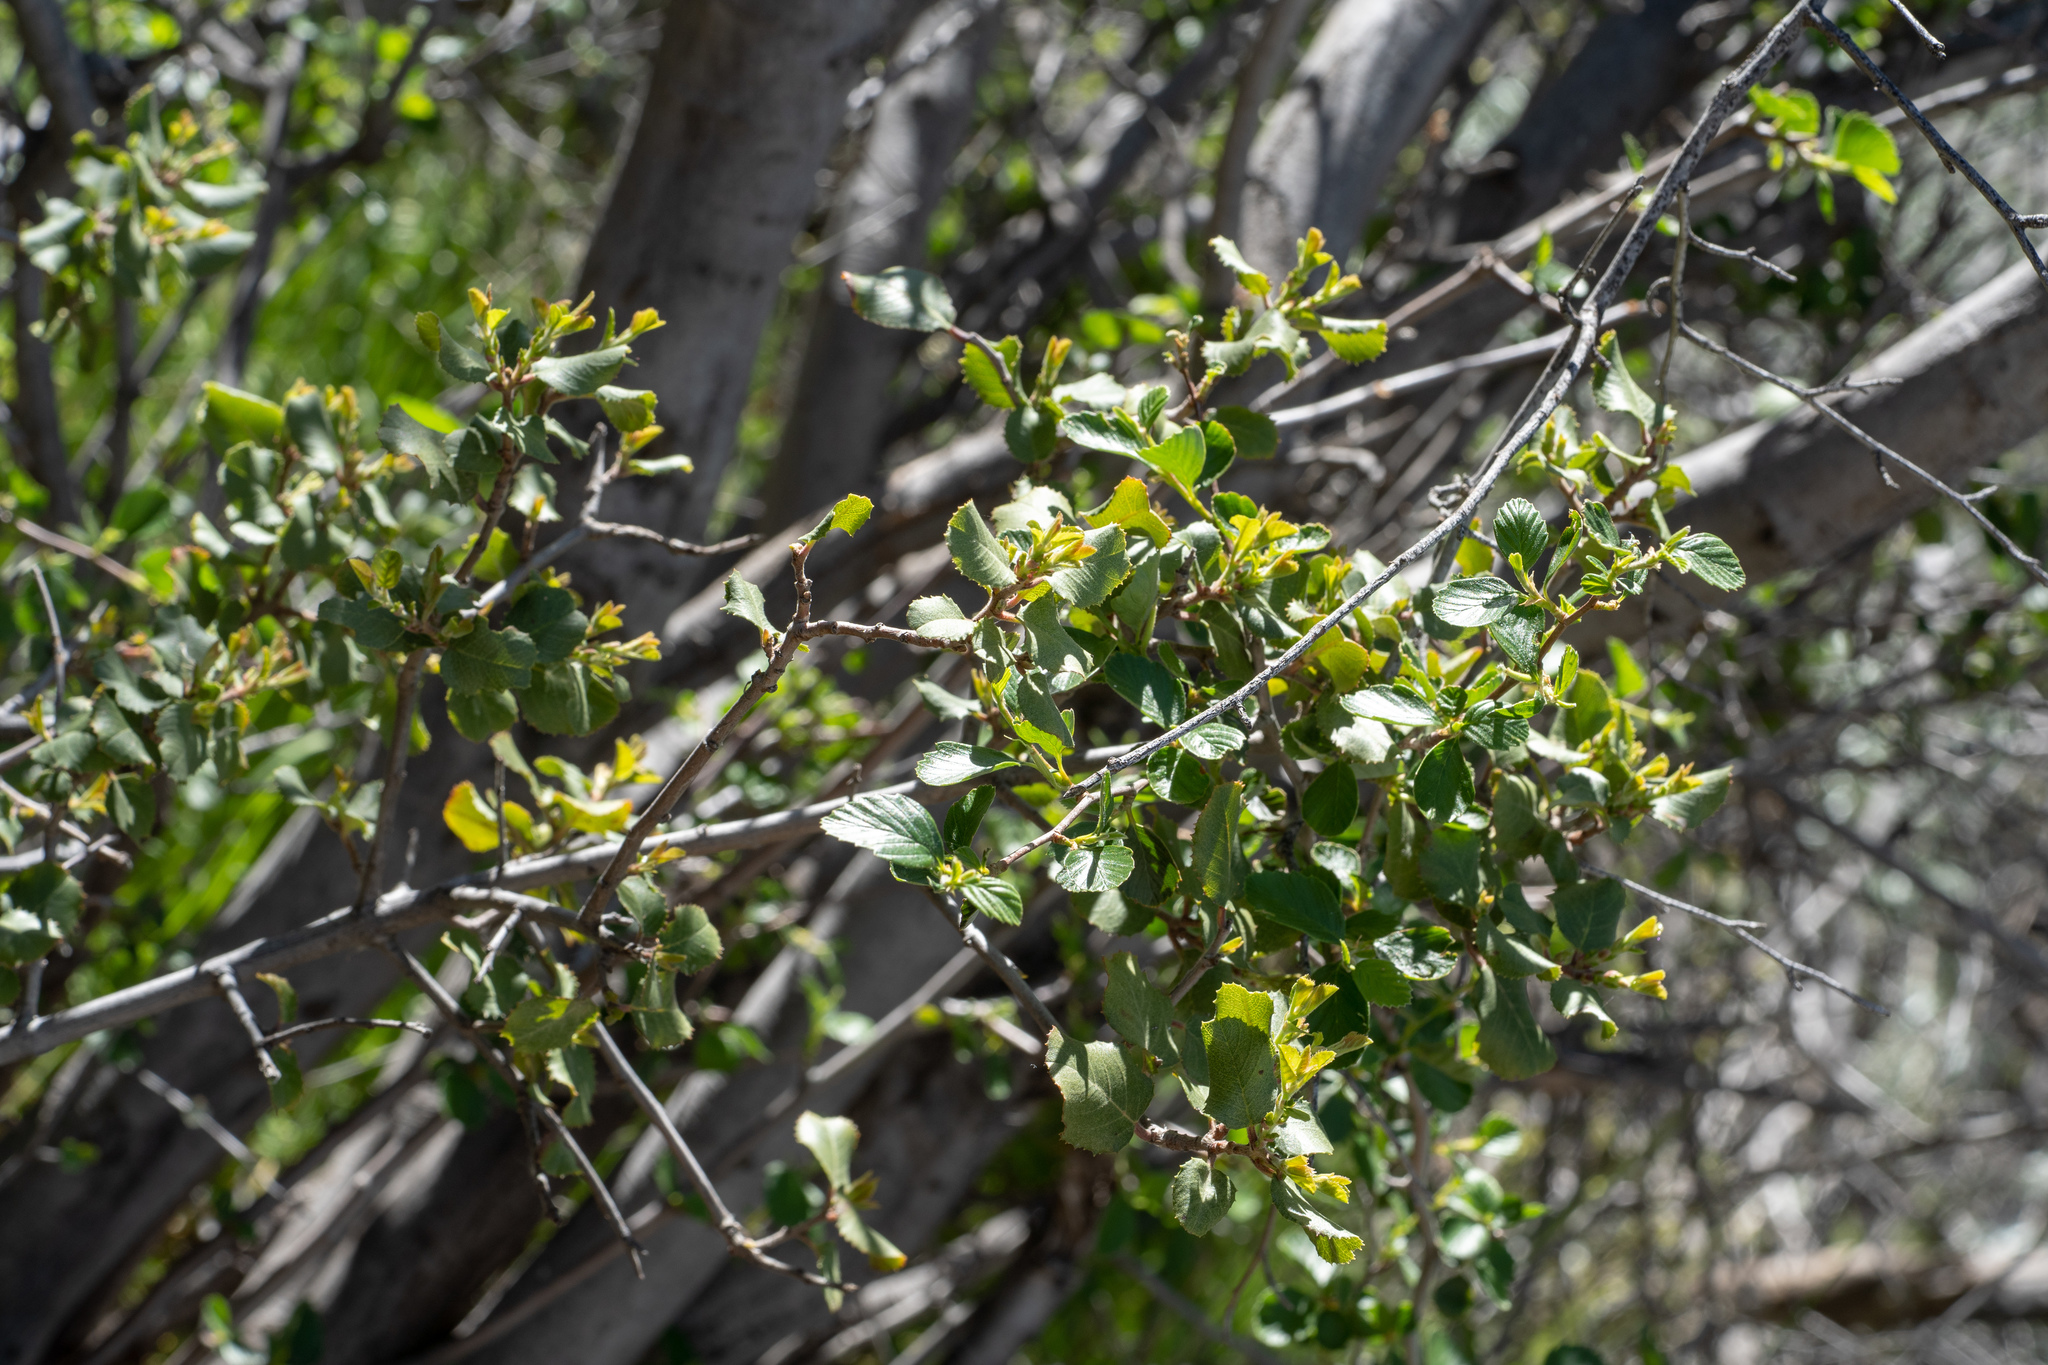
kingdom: Plantae
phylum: Tracheophyta
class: Magnoliopsida
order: Rosales
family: Rosaceae
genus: Cercocarpus
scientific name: Cercocarpus betuloides
